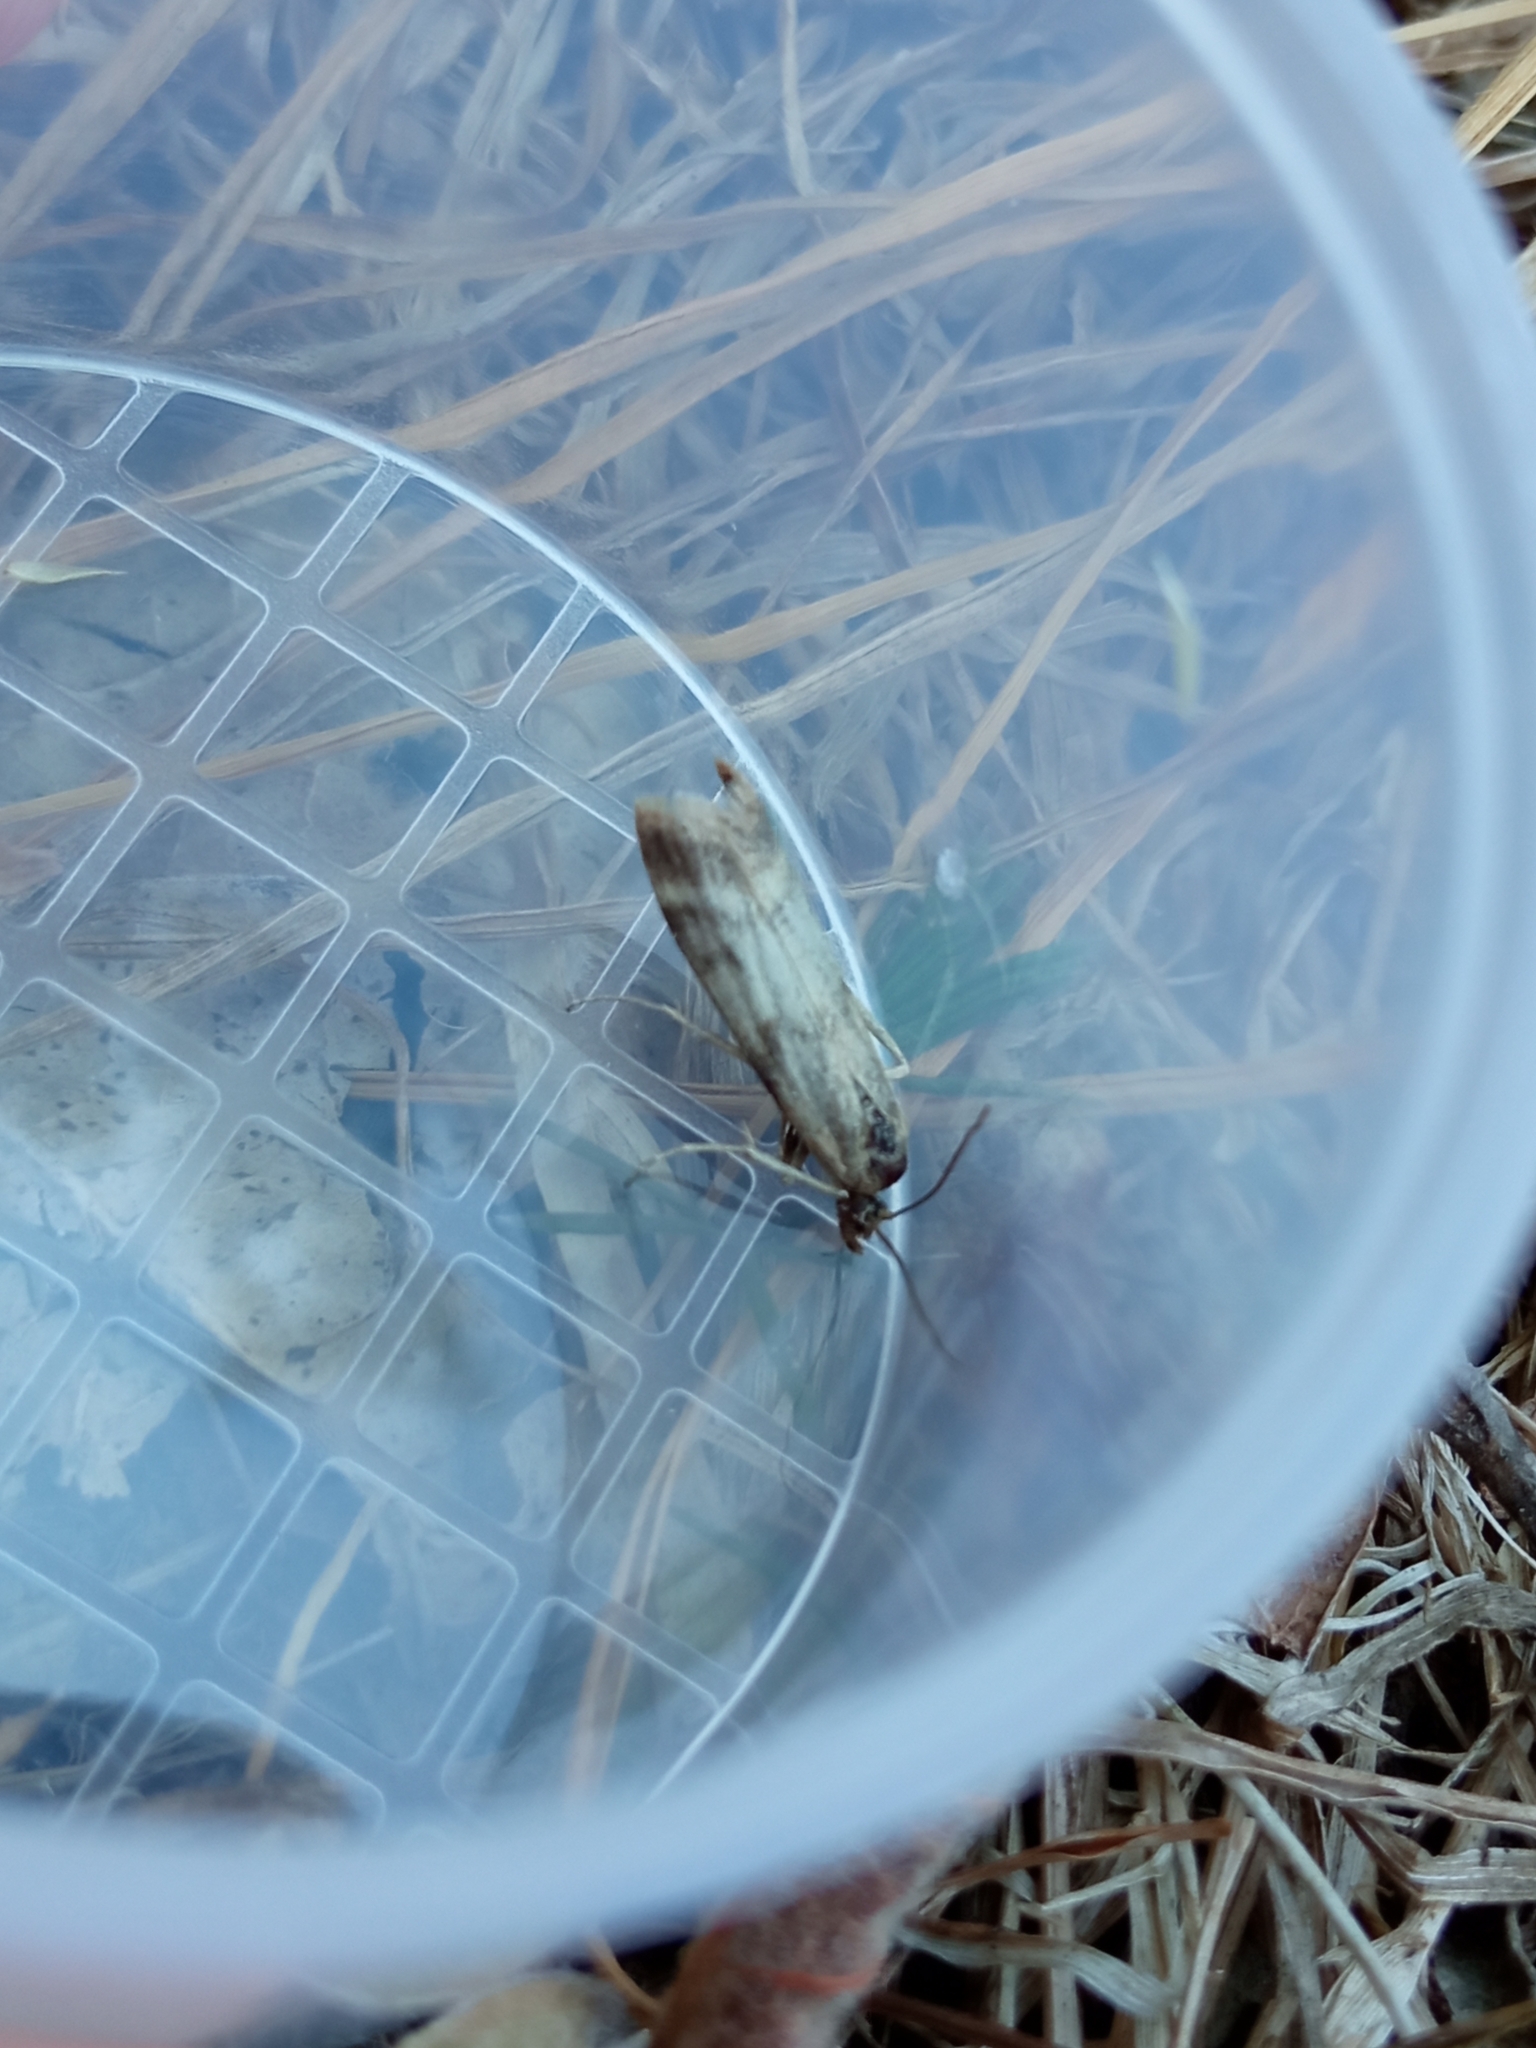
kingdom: Animalia
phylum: Arthropoda
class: Insecta
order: Lepidoptera
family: Pyralidae
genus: Homoeosoma
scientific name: Homoeosoma sinuella
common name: Twin-barred knot-horn
